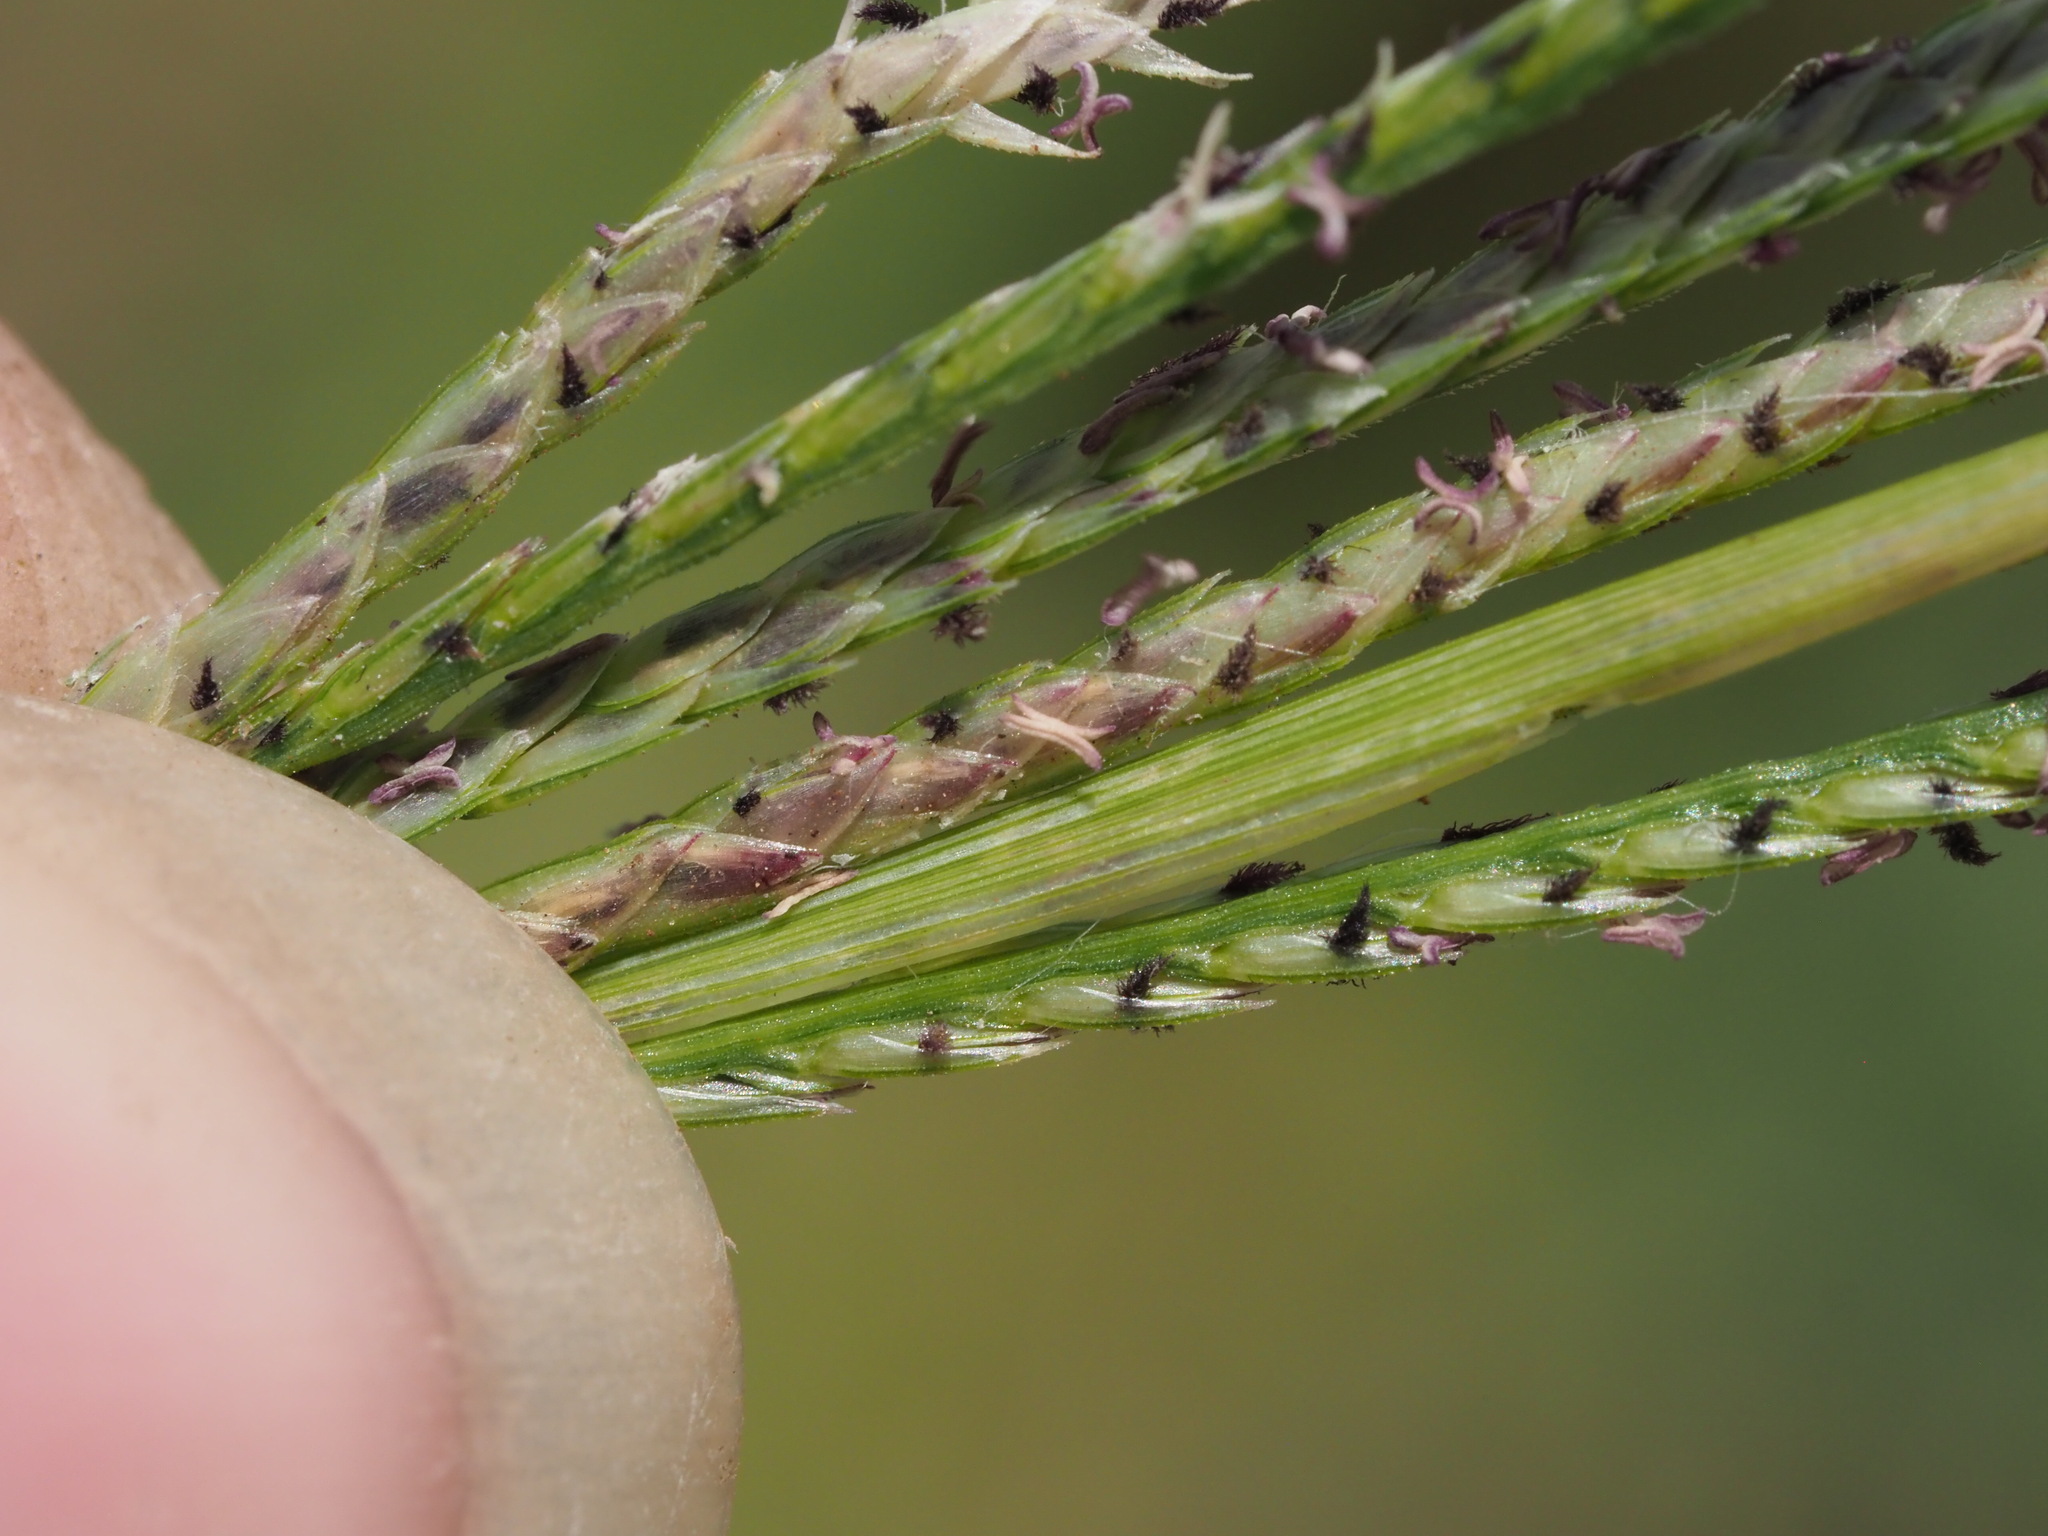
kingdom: Plantae
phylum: Tracheophyta
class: Liliopsida
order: Poales
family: Poaceae
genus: Cynodon
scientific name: Cynodon nlemfuensis
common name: African bermudagrass
